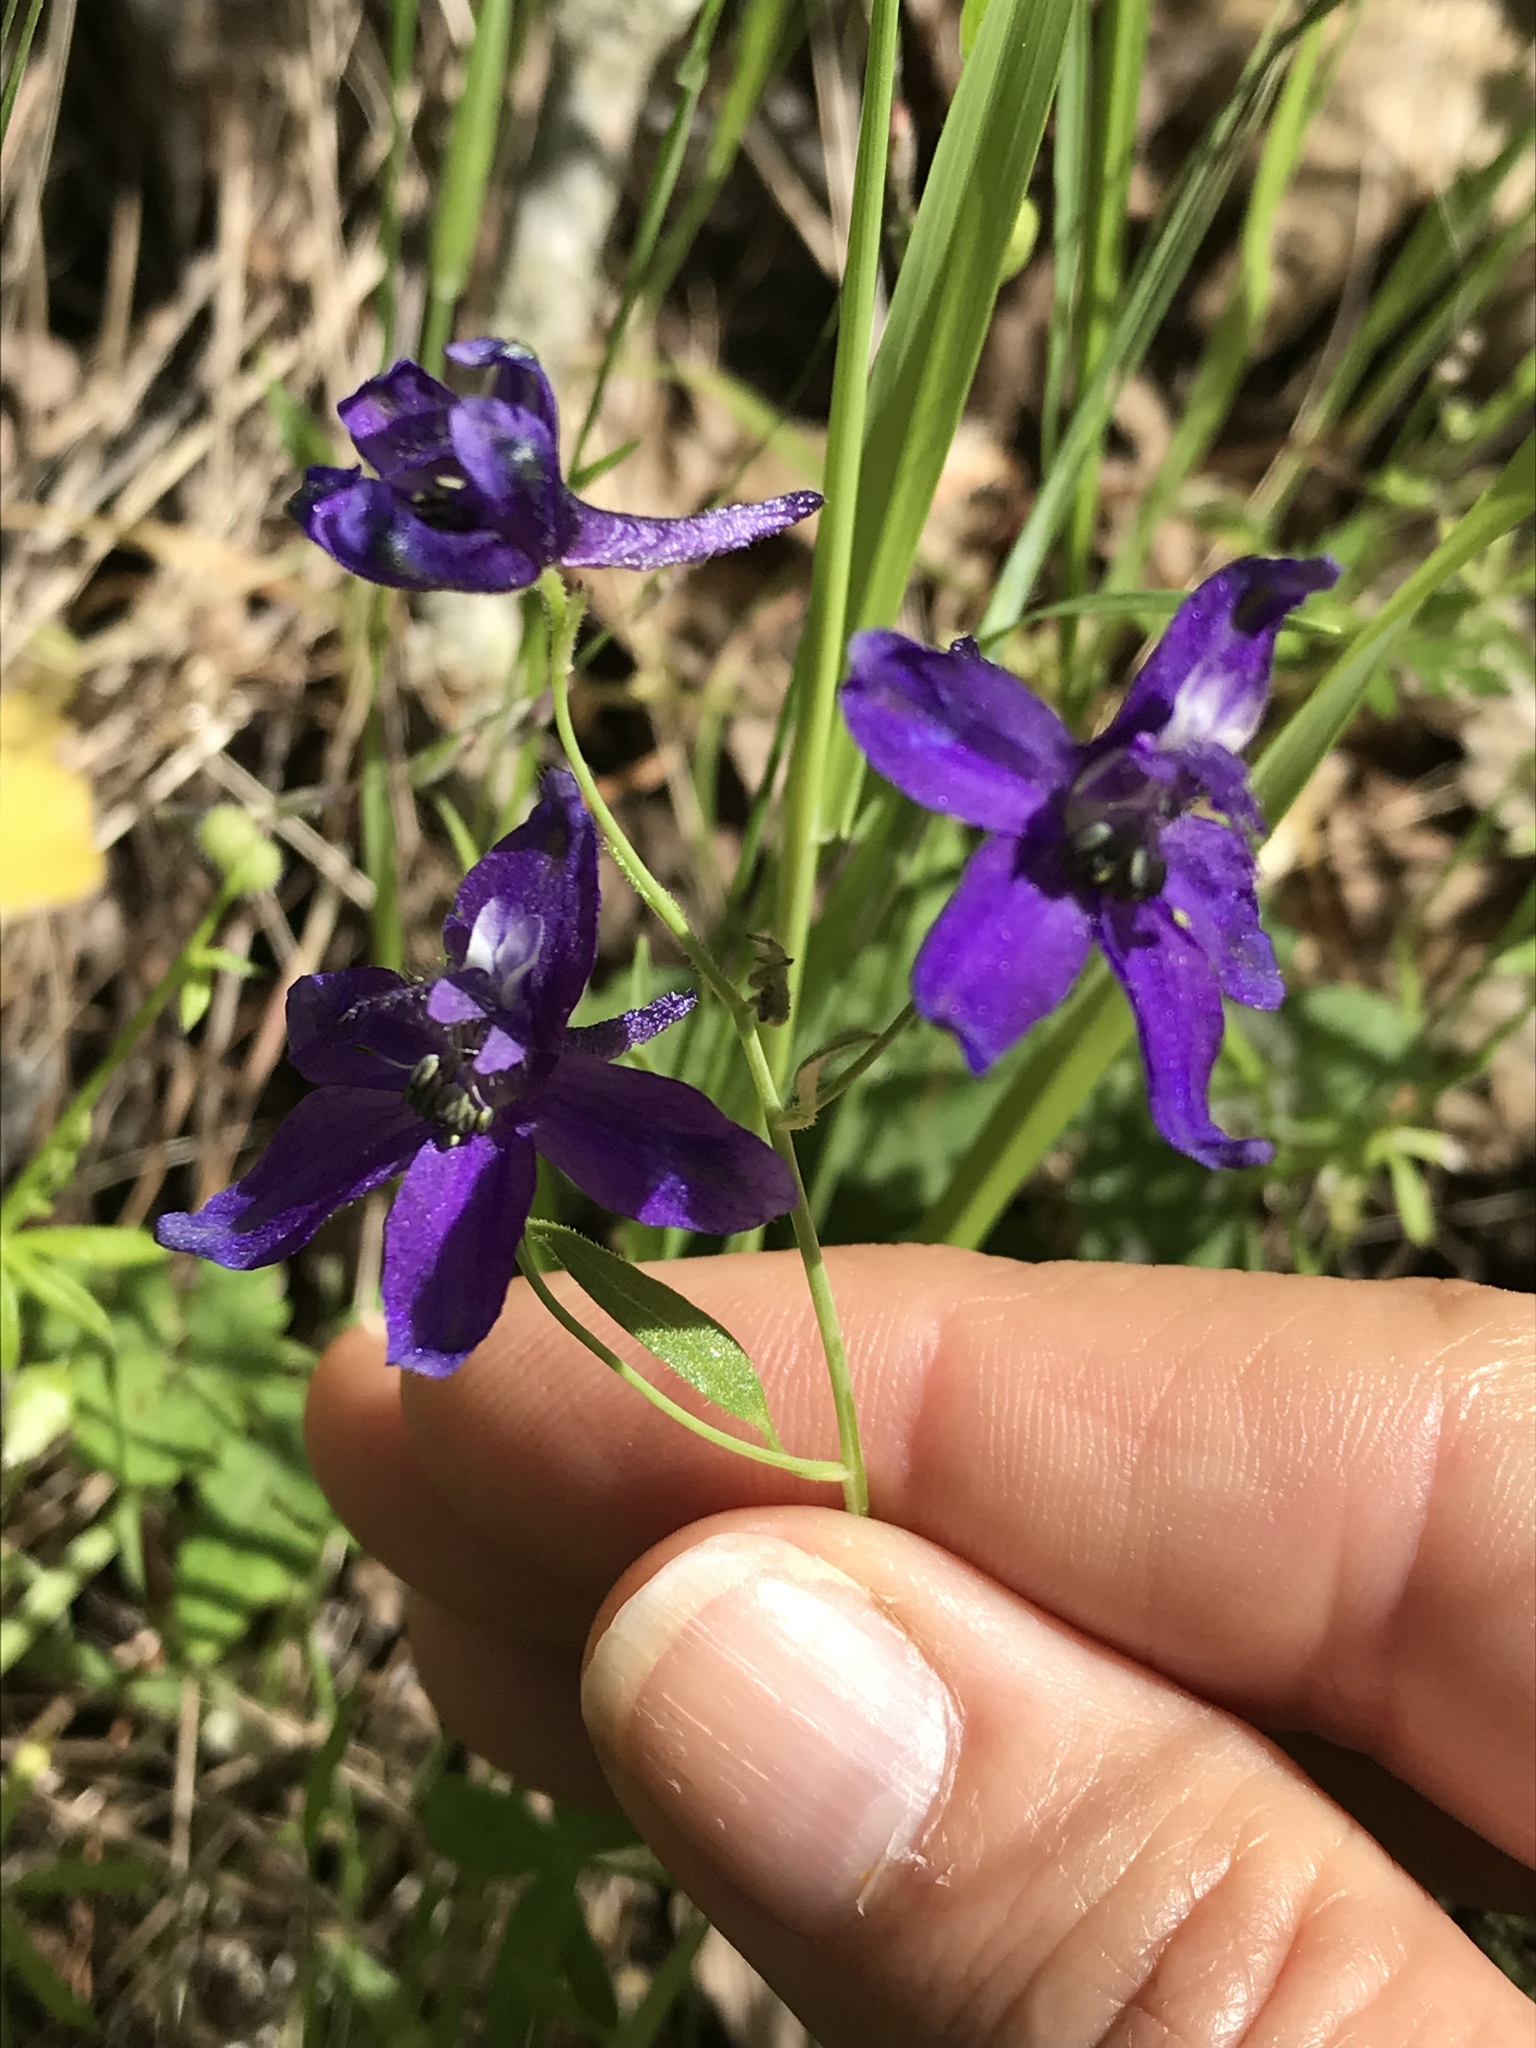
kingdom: Plantae
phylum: Tracheophyta
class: Magnoliopsida
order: Ranunculales
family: Ranunculaceae
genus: Delphinium
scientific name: Delphinium patens
